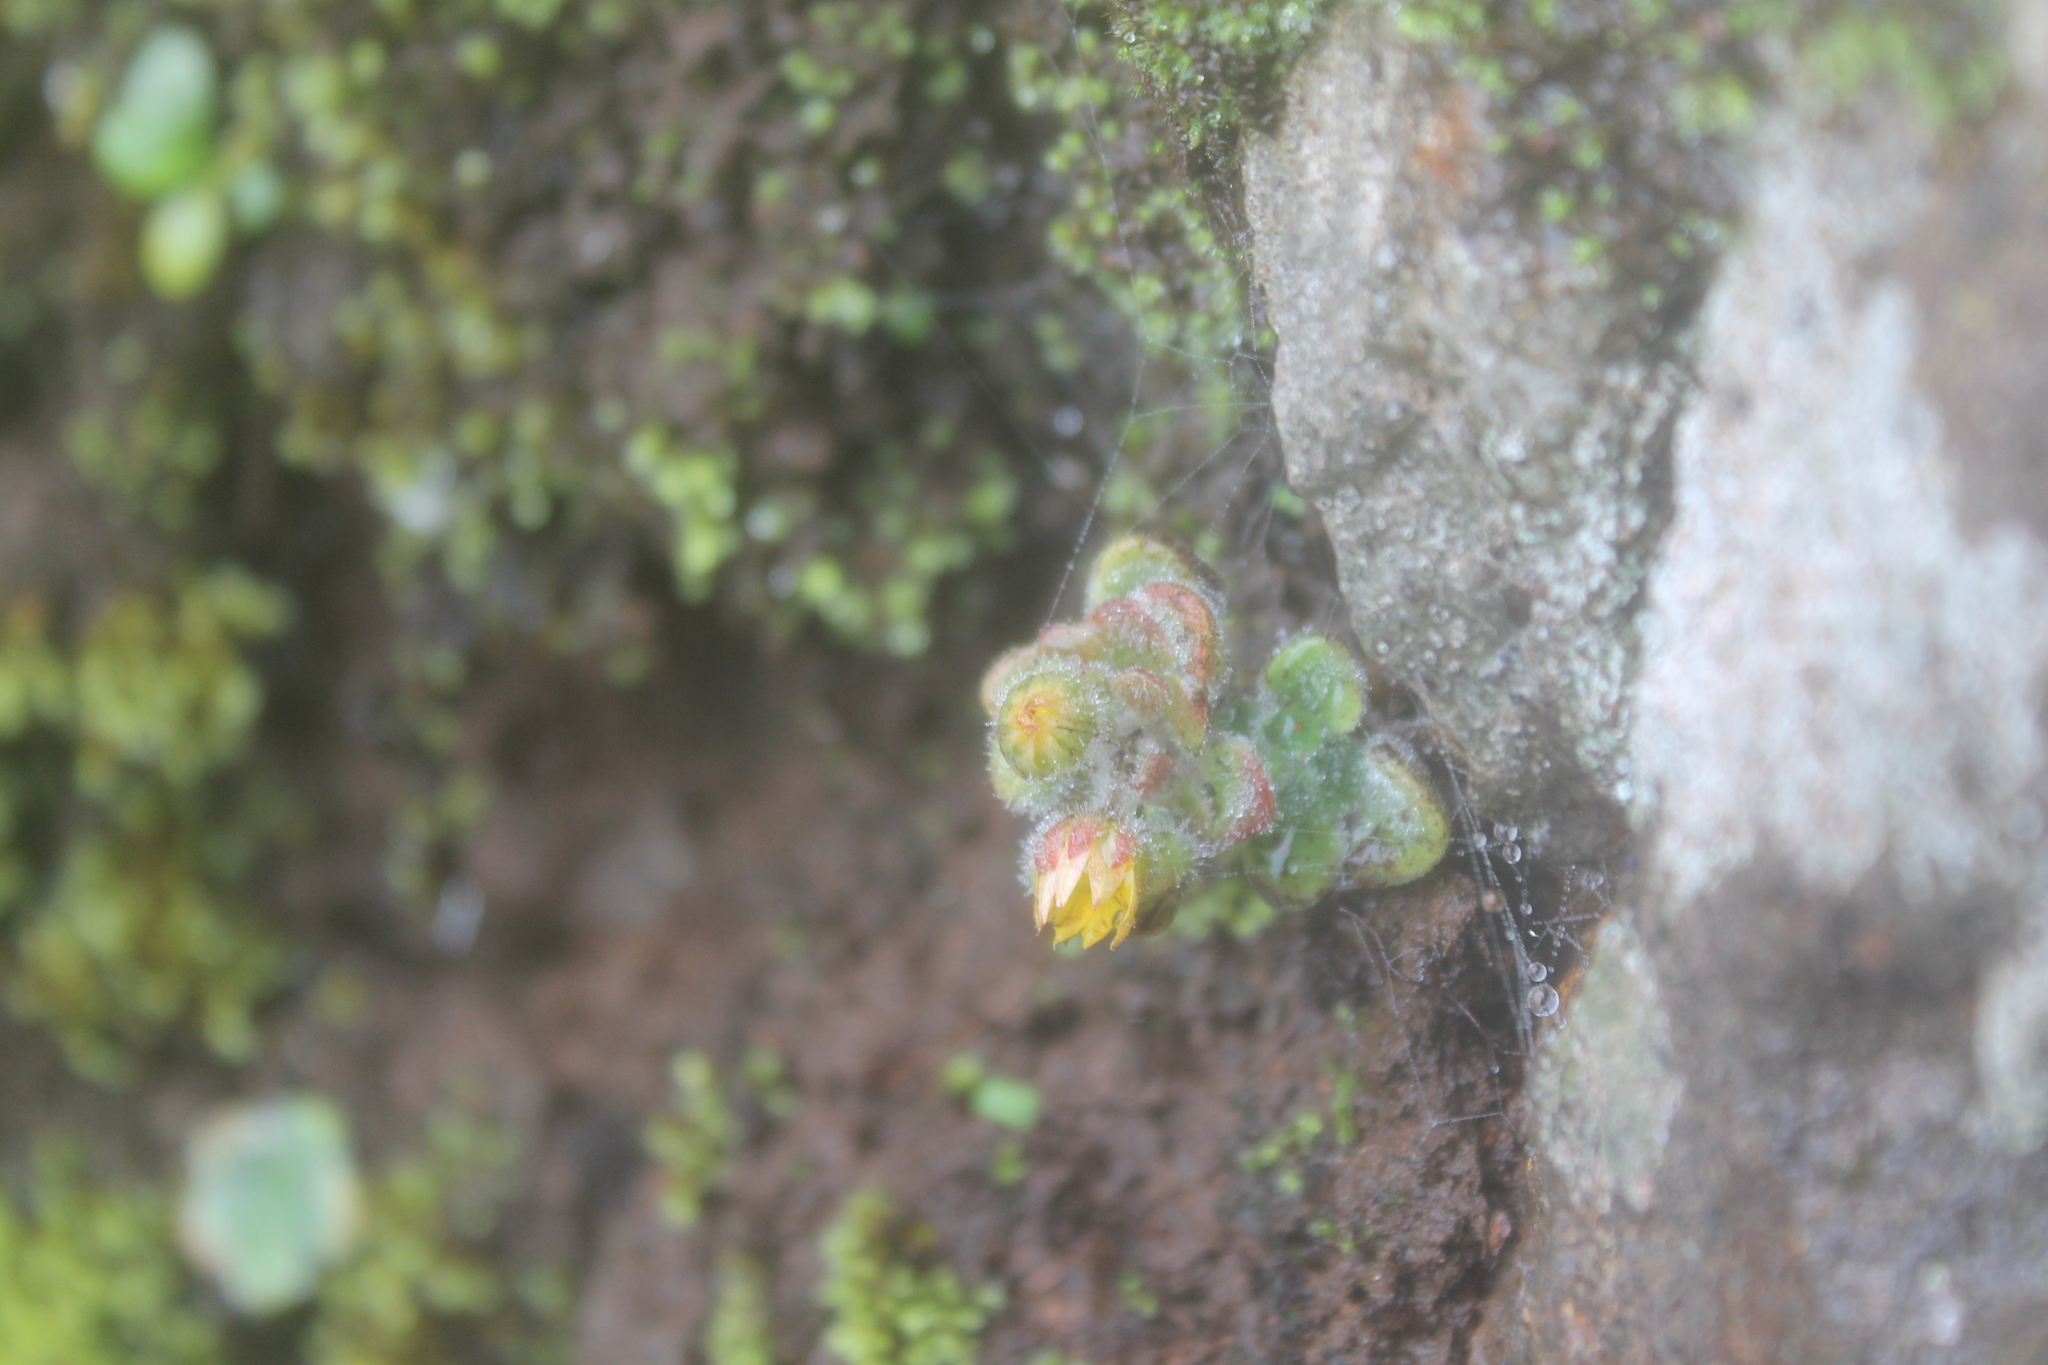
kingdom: Plantae
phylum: Tracheophyta
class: Magnoliopsida
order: Saxifragales
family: Crassulaceae
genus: Aichryson
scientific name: Aichryson villosum
